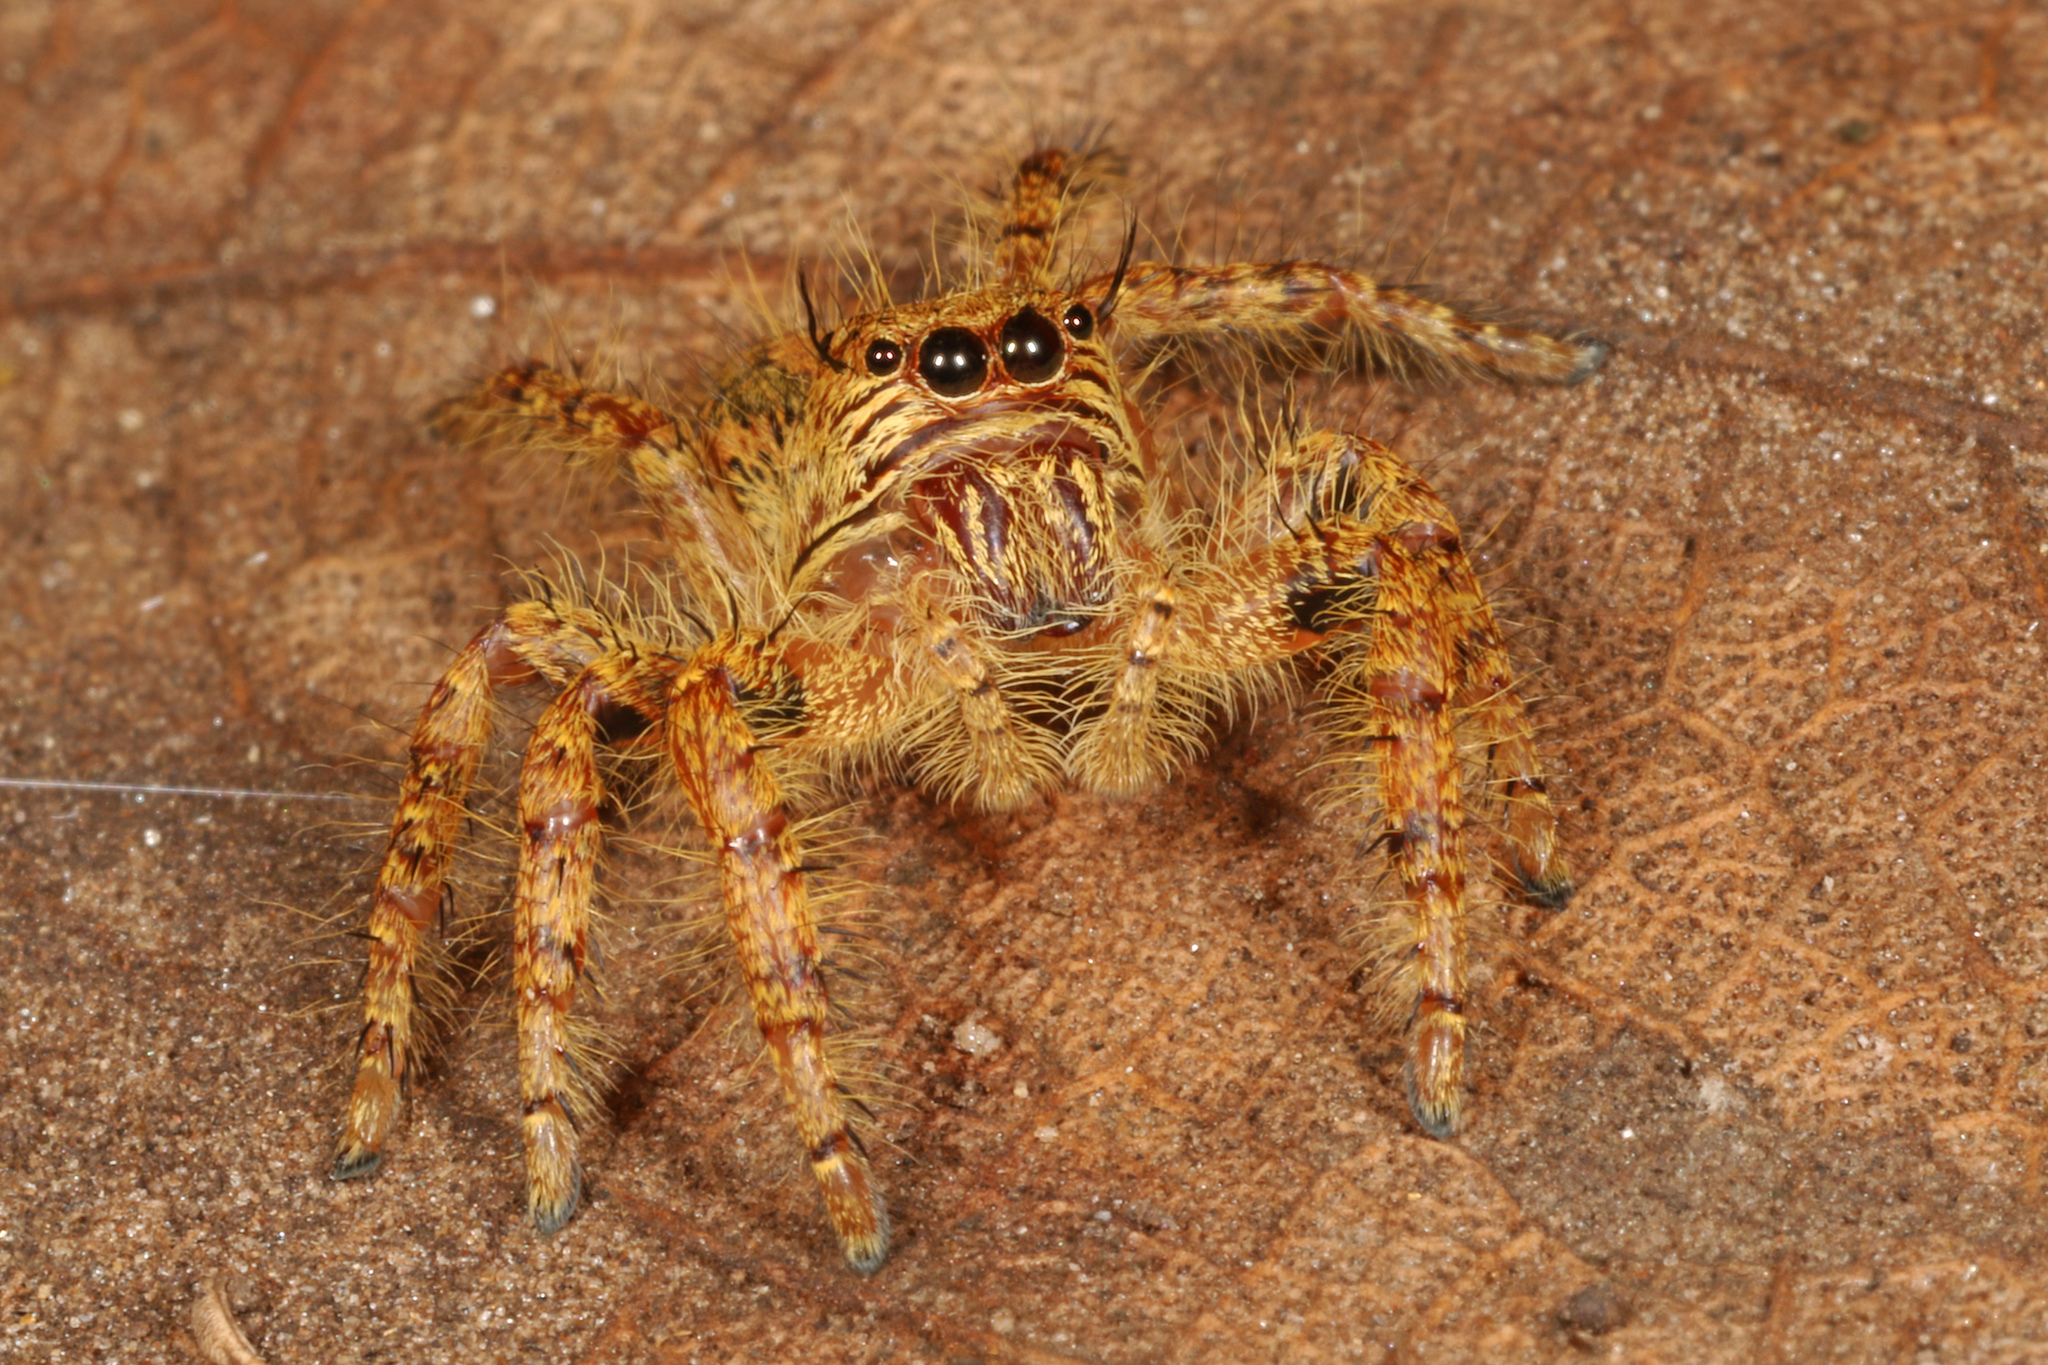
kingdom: Animalia
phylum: Arthropoda
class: Arachnida
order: Araneae
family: Salticidae
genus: Hyllus
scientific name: Hyllus treleaveni
